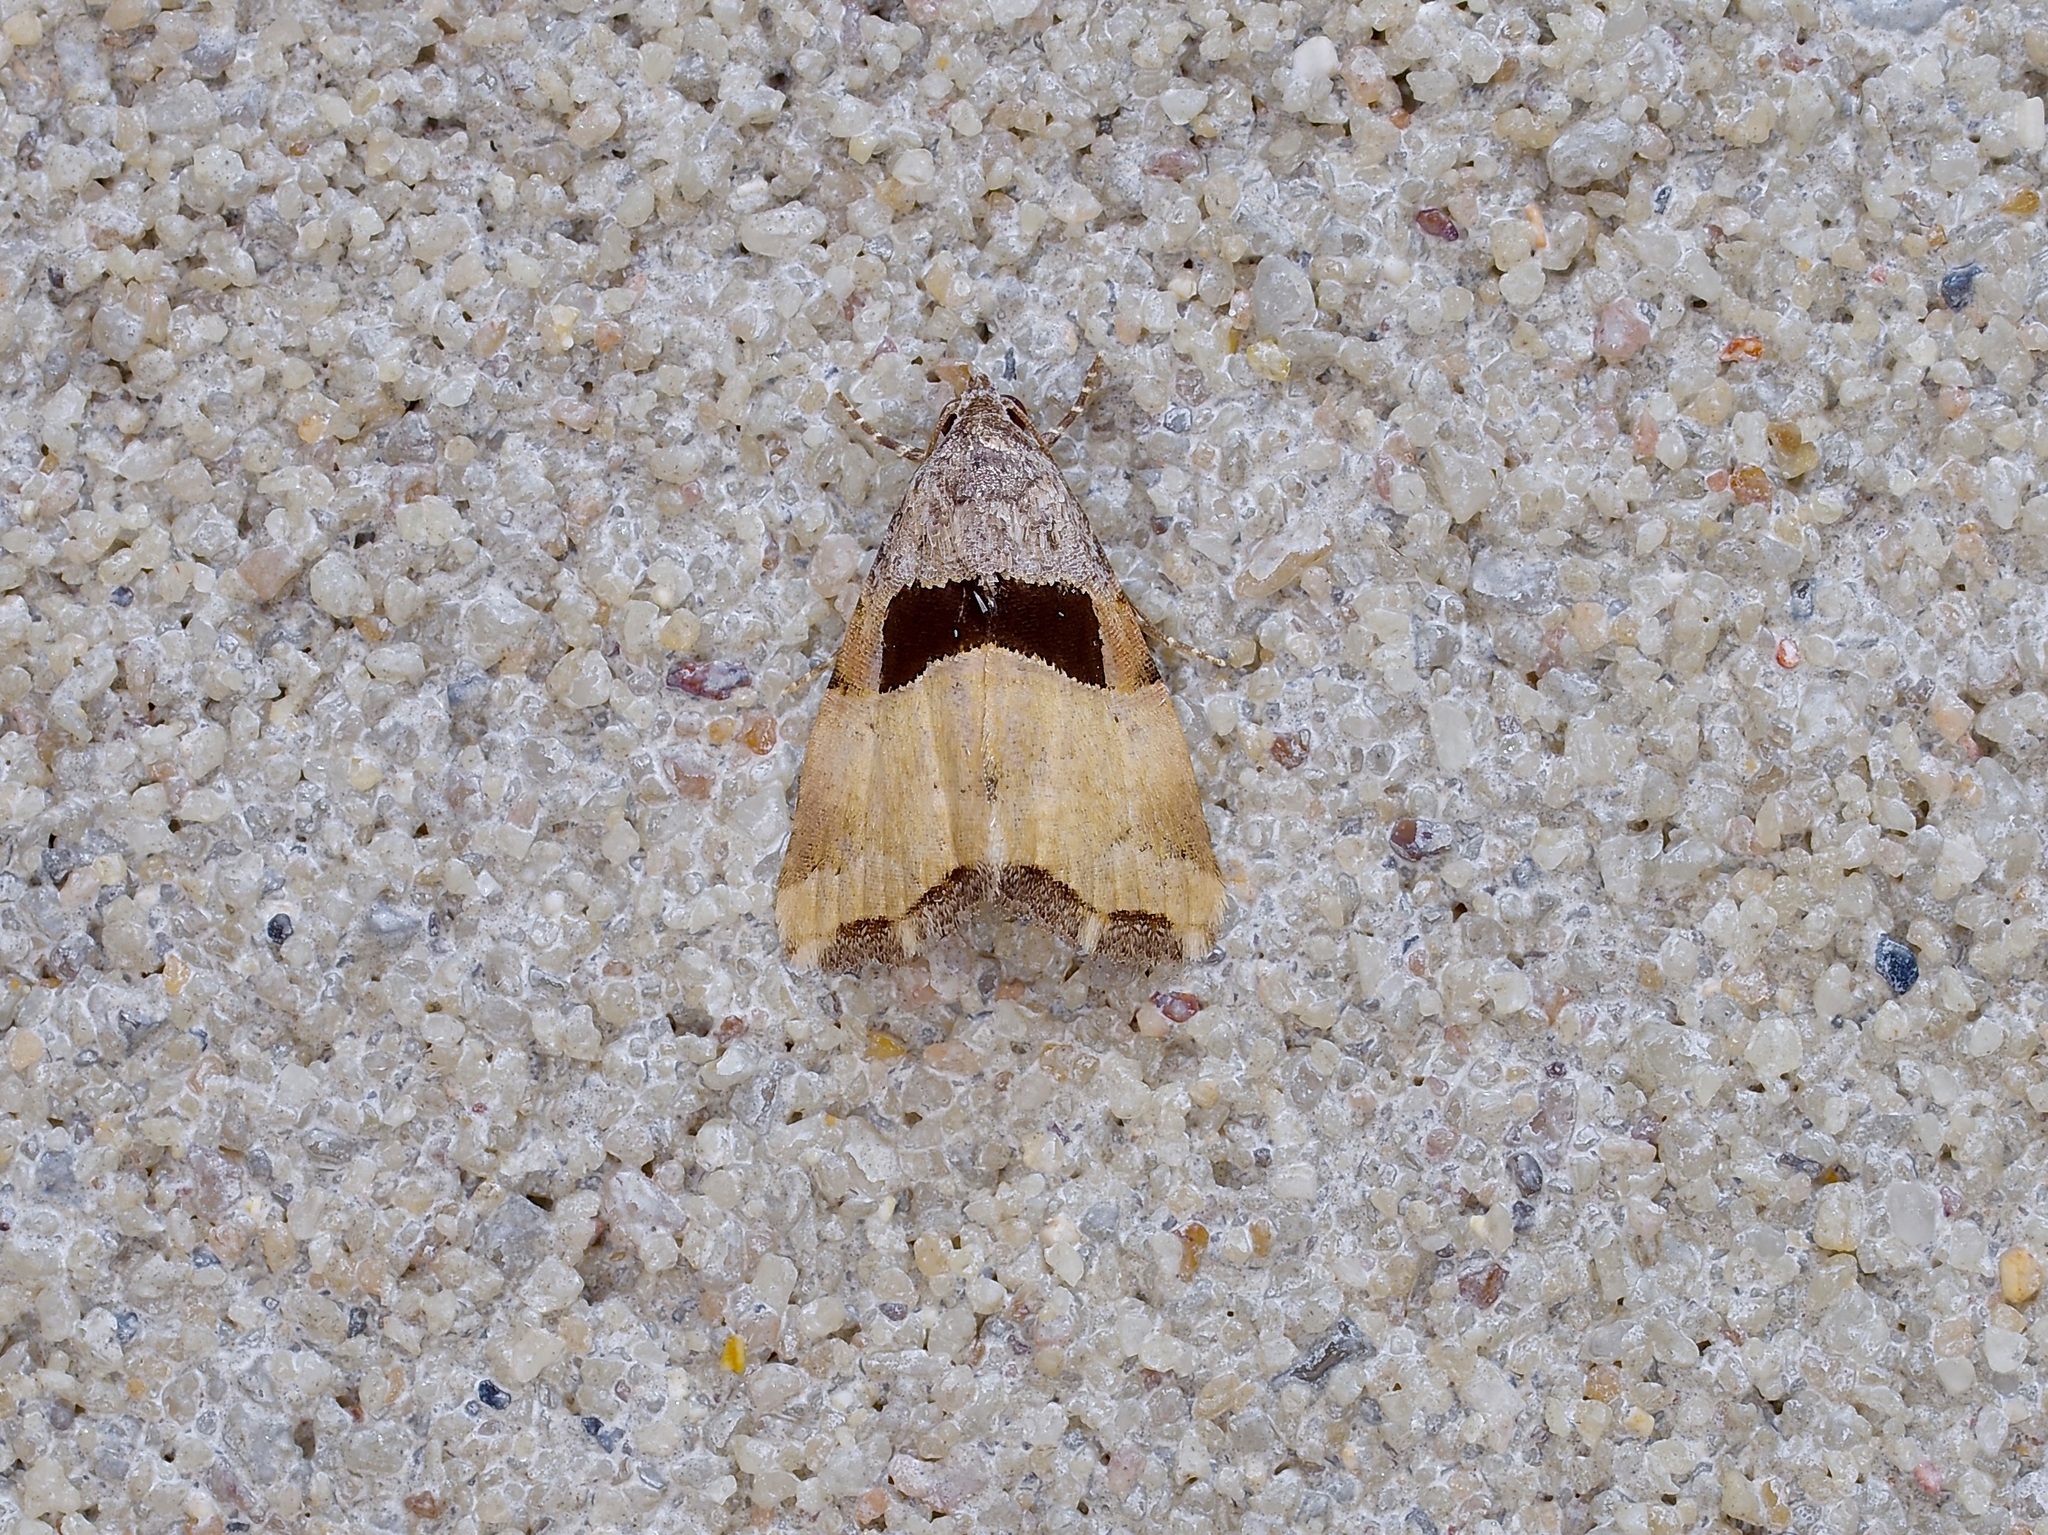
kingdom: Animalia
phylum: Arthropoda
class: Insecta
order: Lepidoptera
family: Noctuidae
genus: Cobubatha
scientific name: Cobubatha megaplaga
